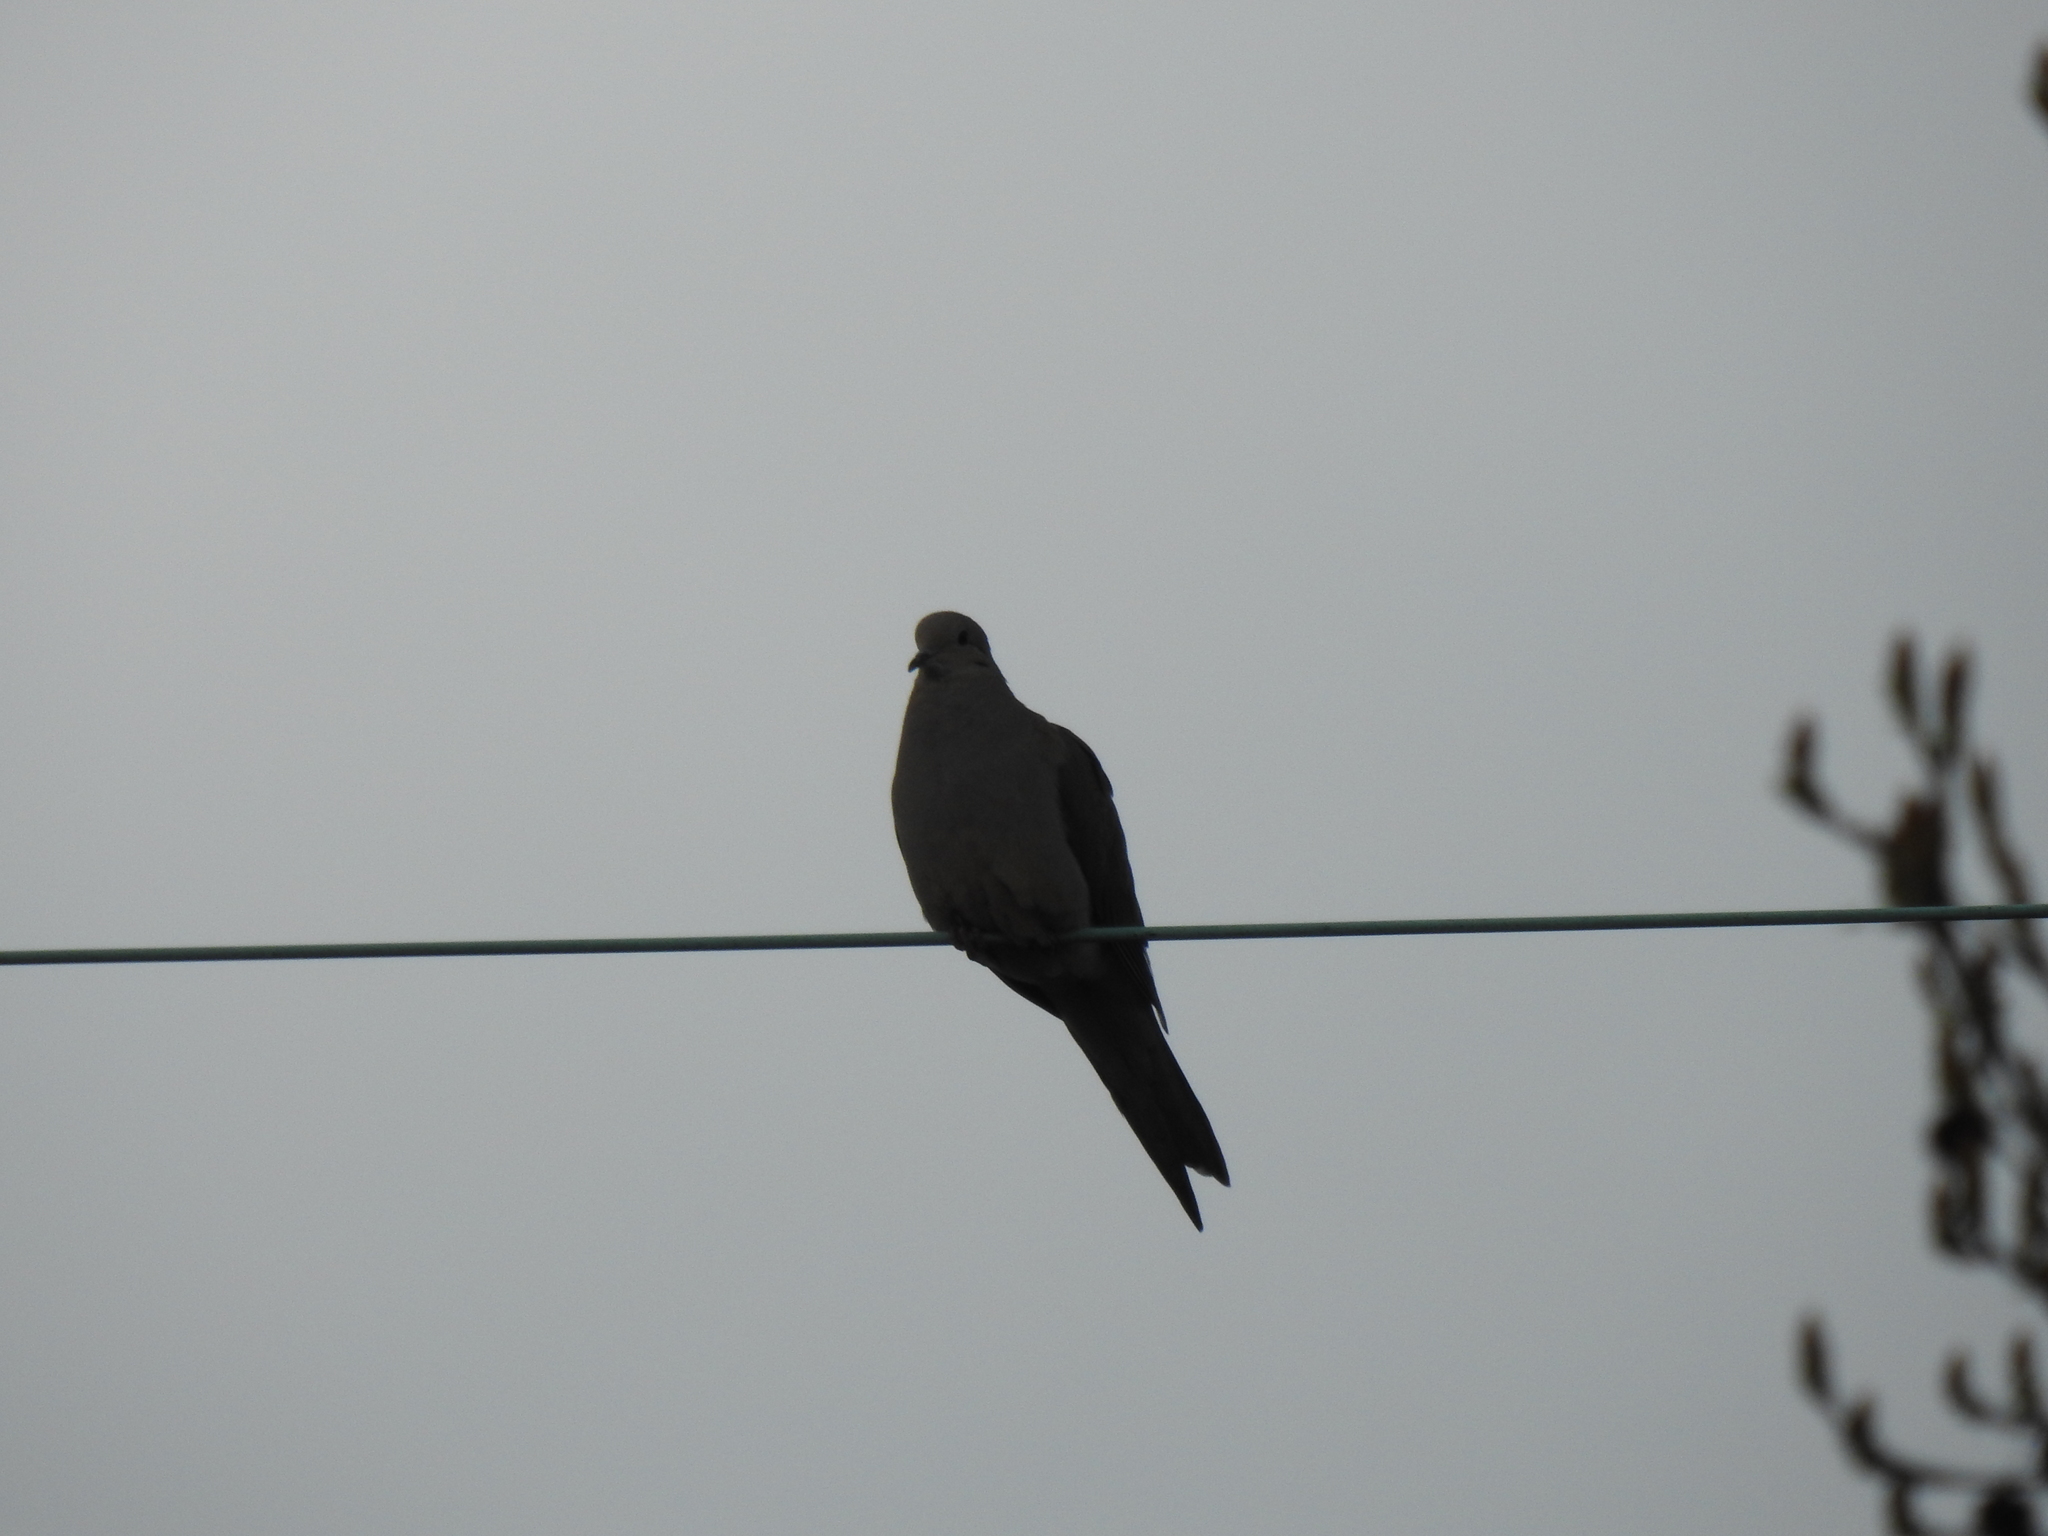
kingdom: Animalia
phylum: Chordata
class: Aves
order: Columbiformes
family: Columbidae
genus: Zenaida
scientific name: Zenaida macroura
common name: Mourning dove
